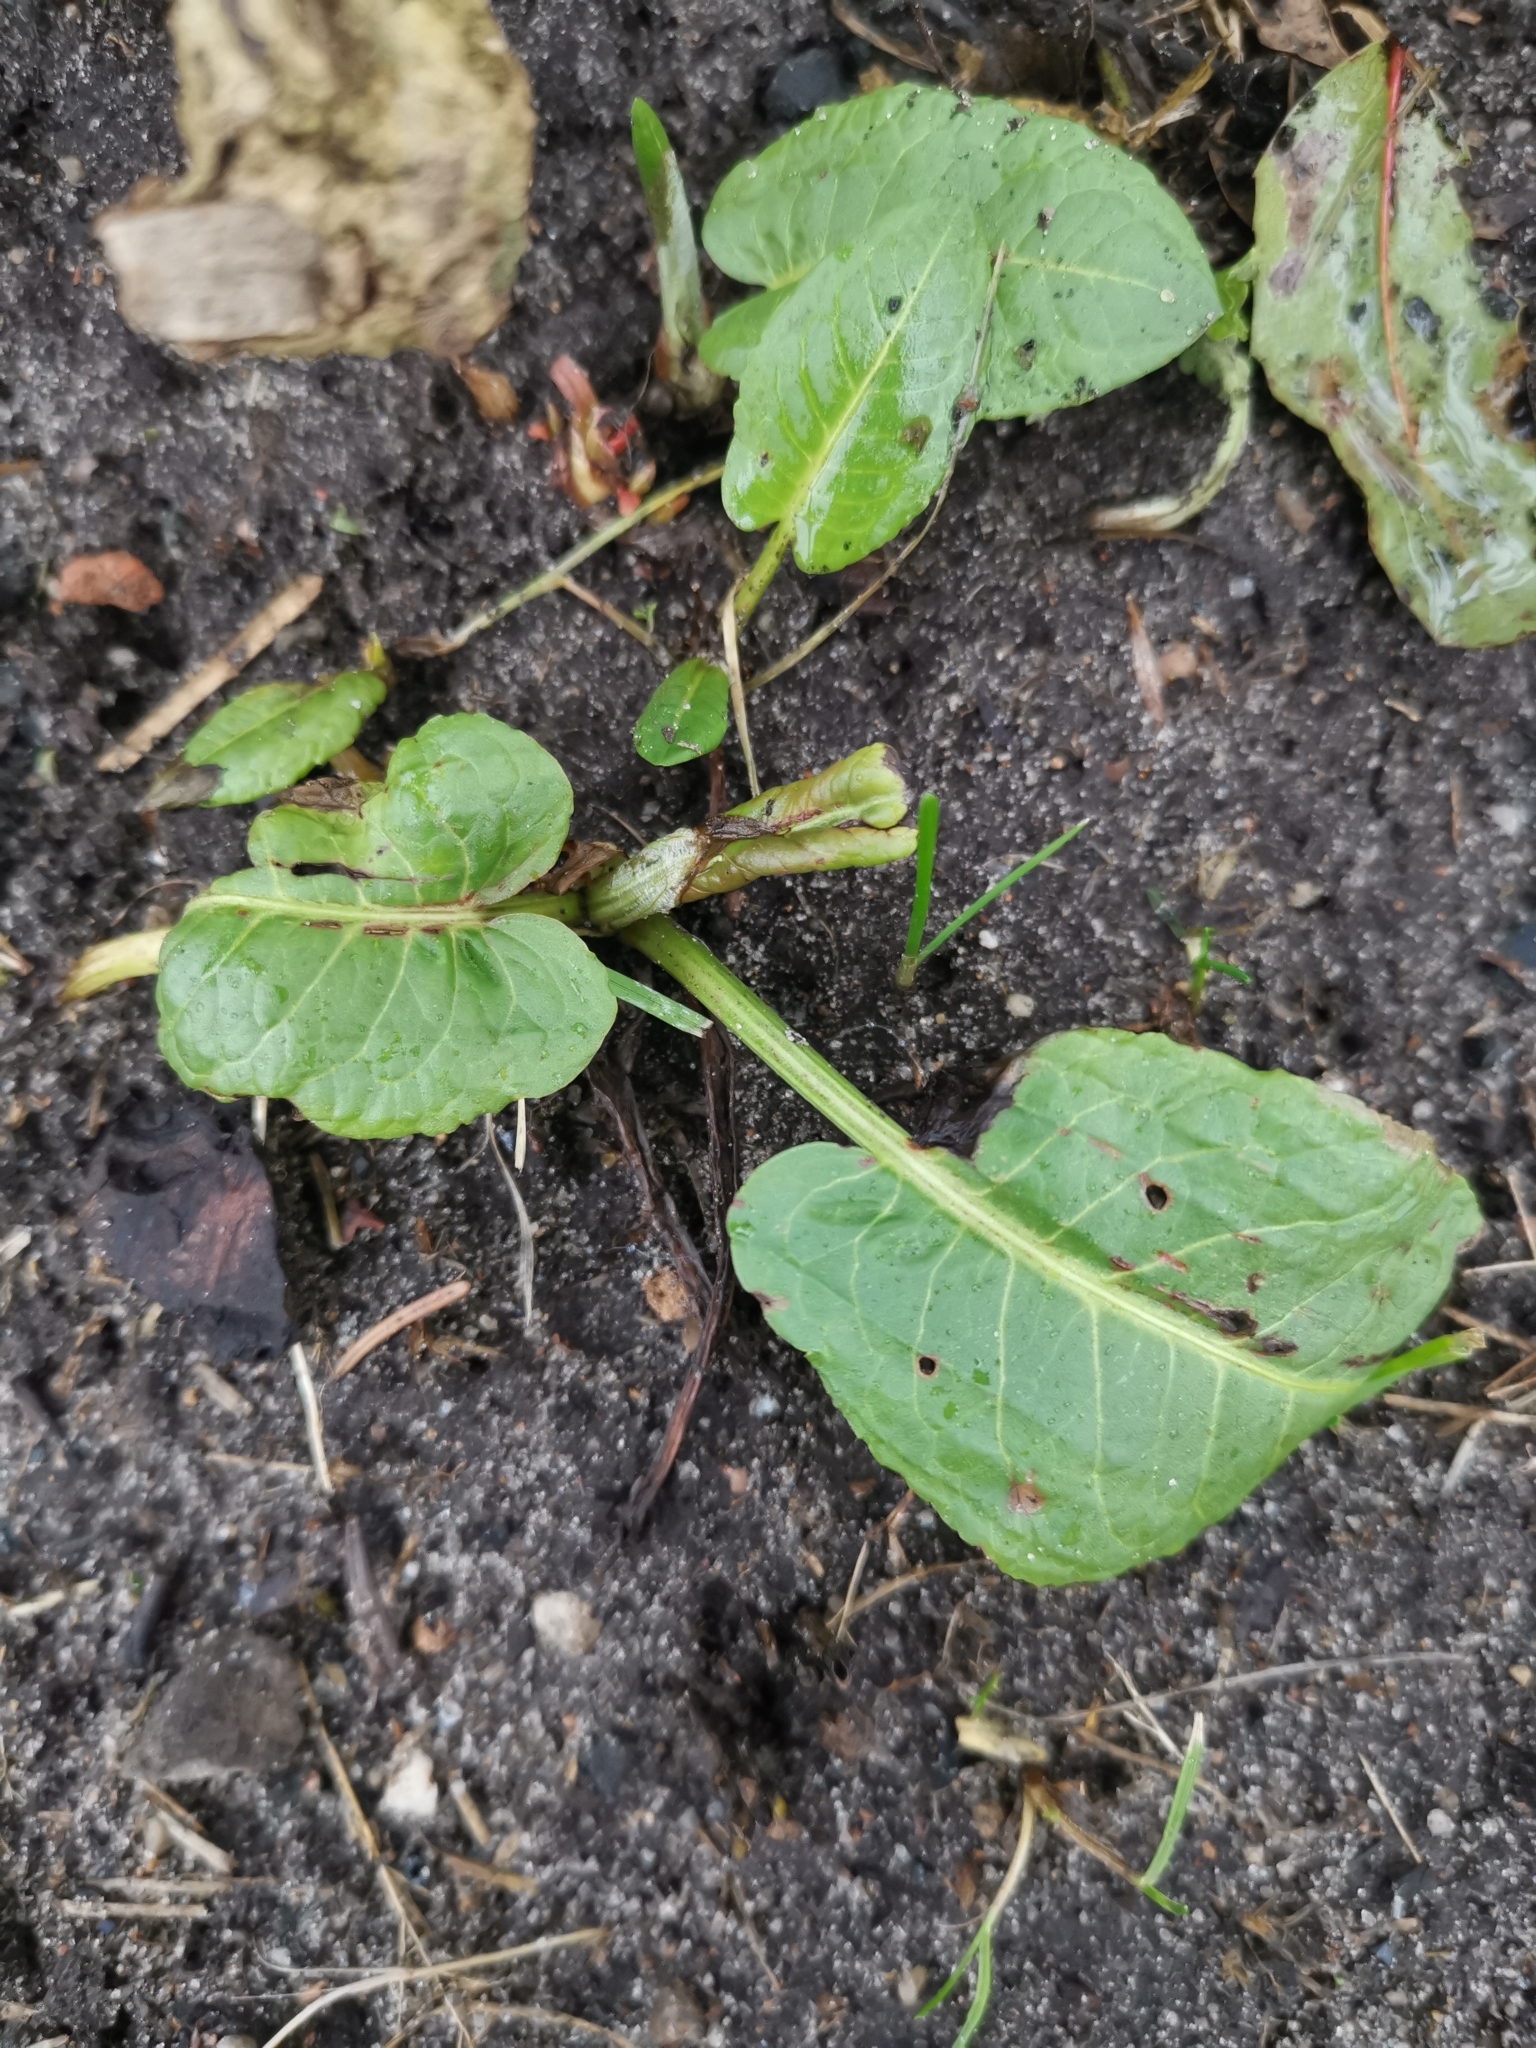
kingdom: Plantae
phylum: Tracheophyta
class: Magnoliopsida
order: Caryophyllales
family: Polygonaceae
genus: Rumex
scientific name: Rumex obtusifolius
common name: Bitter dock
